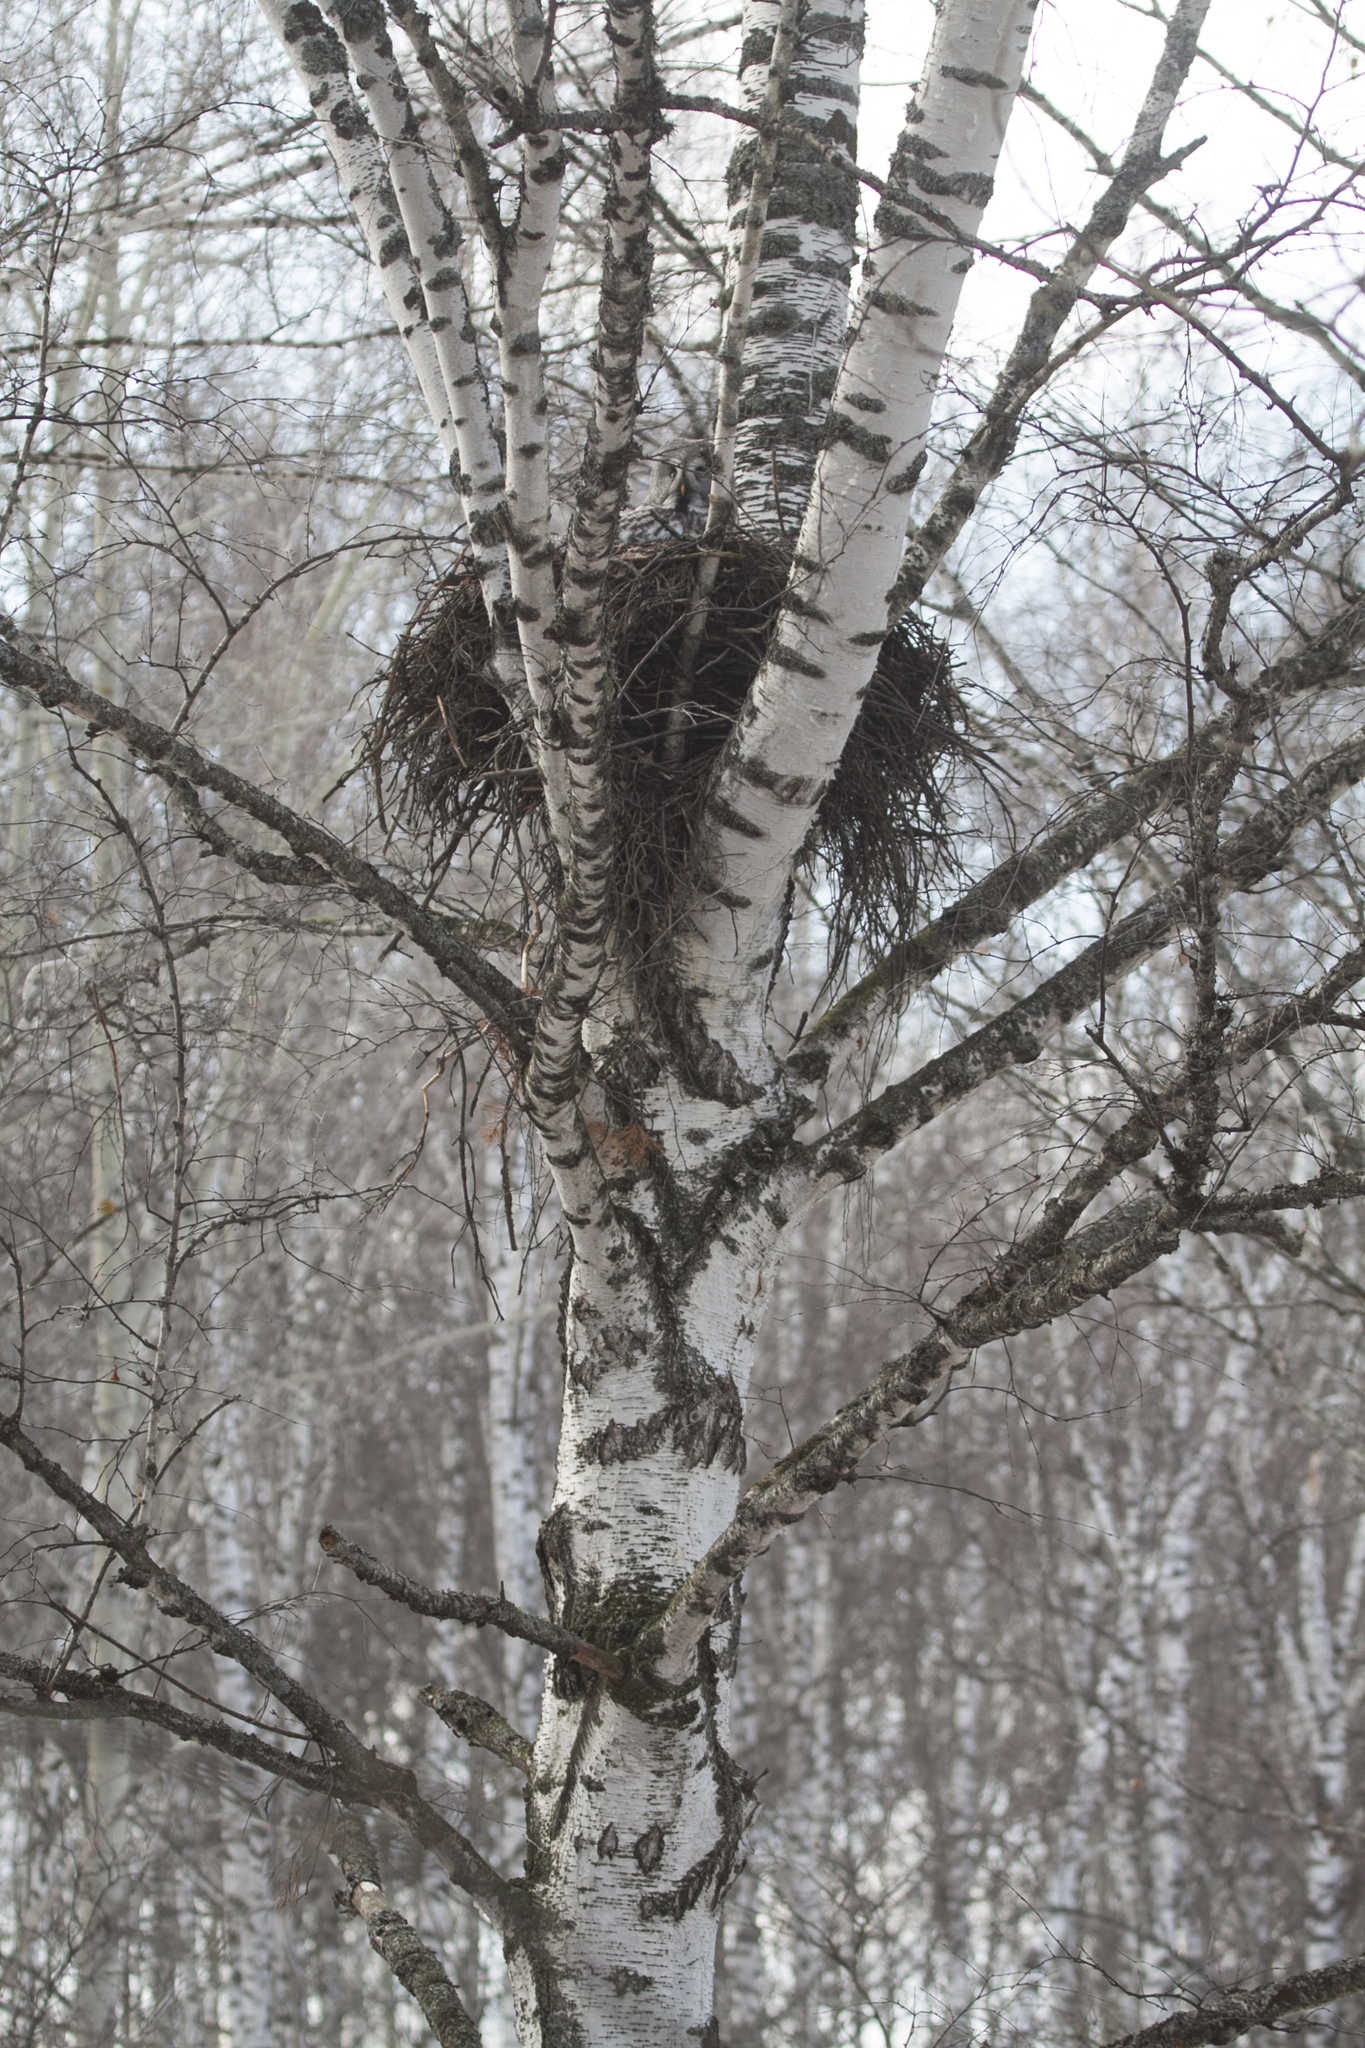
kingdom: Animalia
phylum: Chordata
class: Aves
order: Strigiformes
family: Strigidae
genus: Strix
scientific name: Strix nebulosa
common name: Great grey owl
